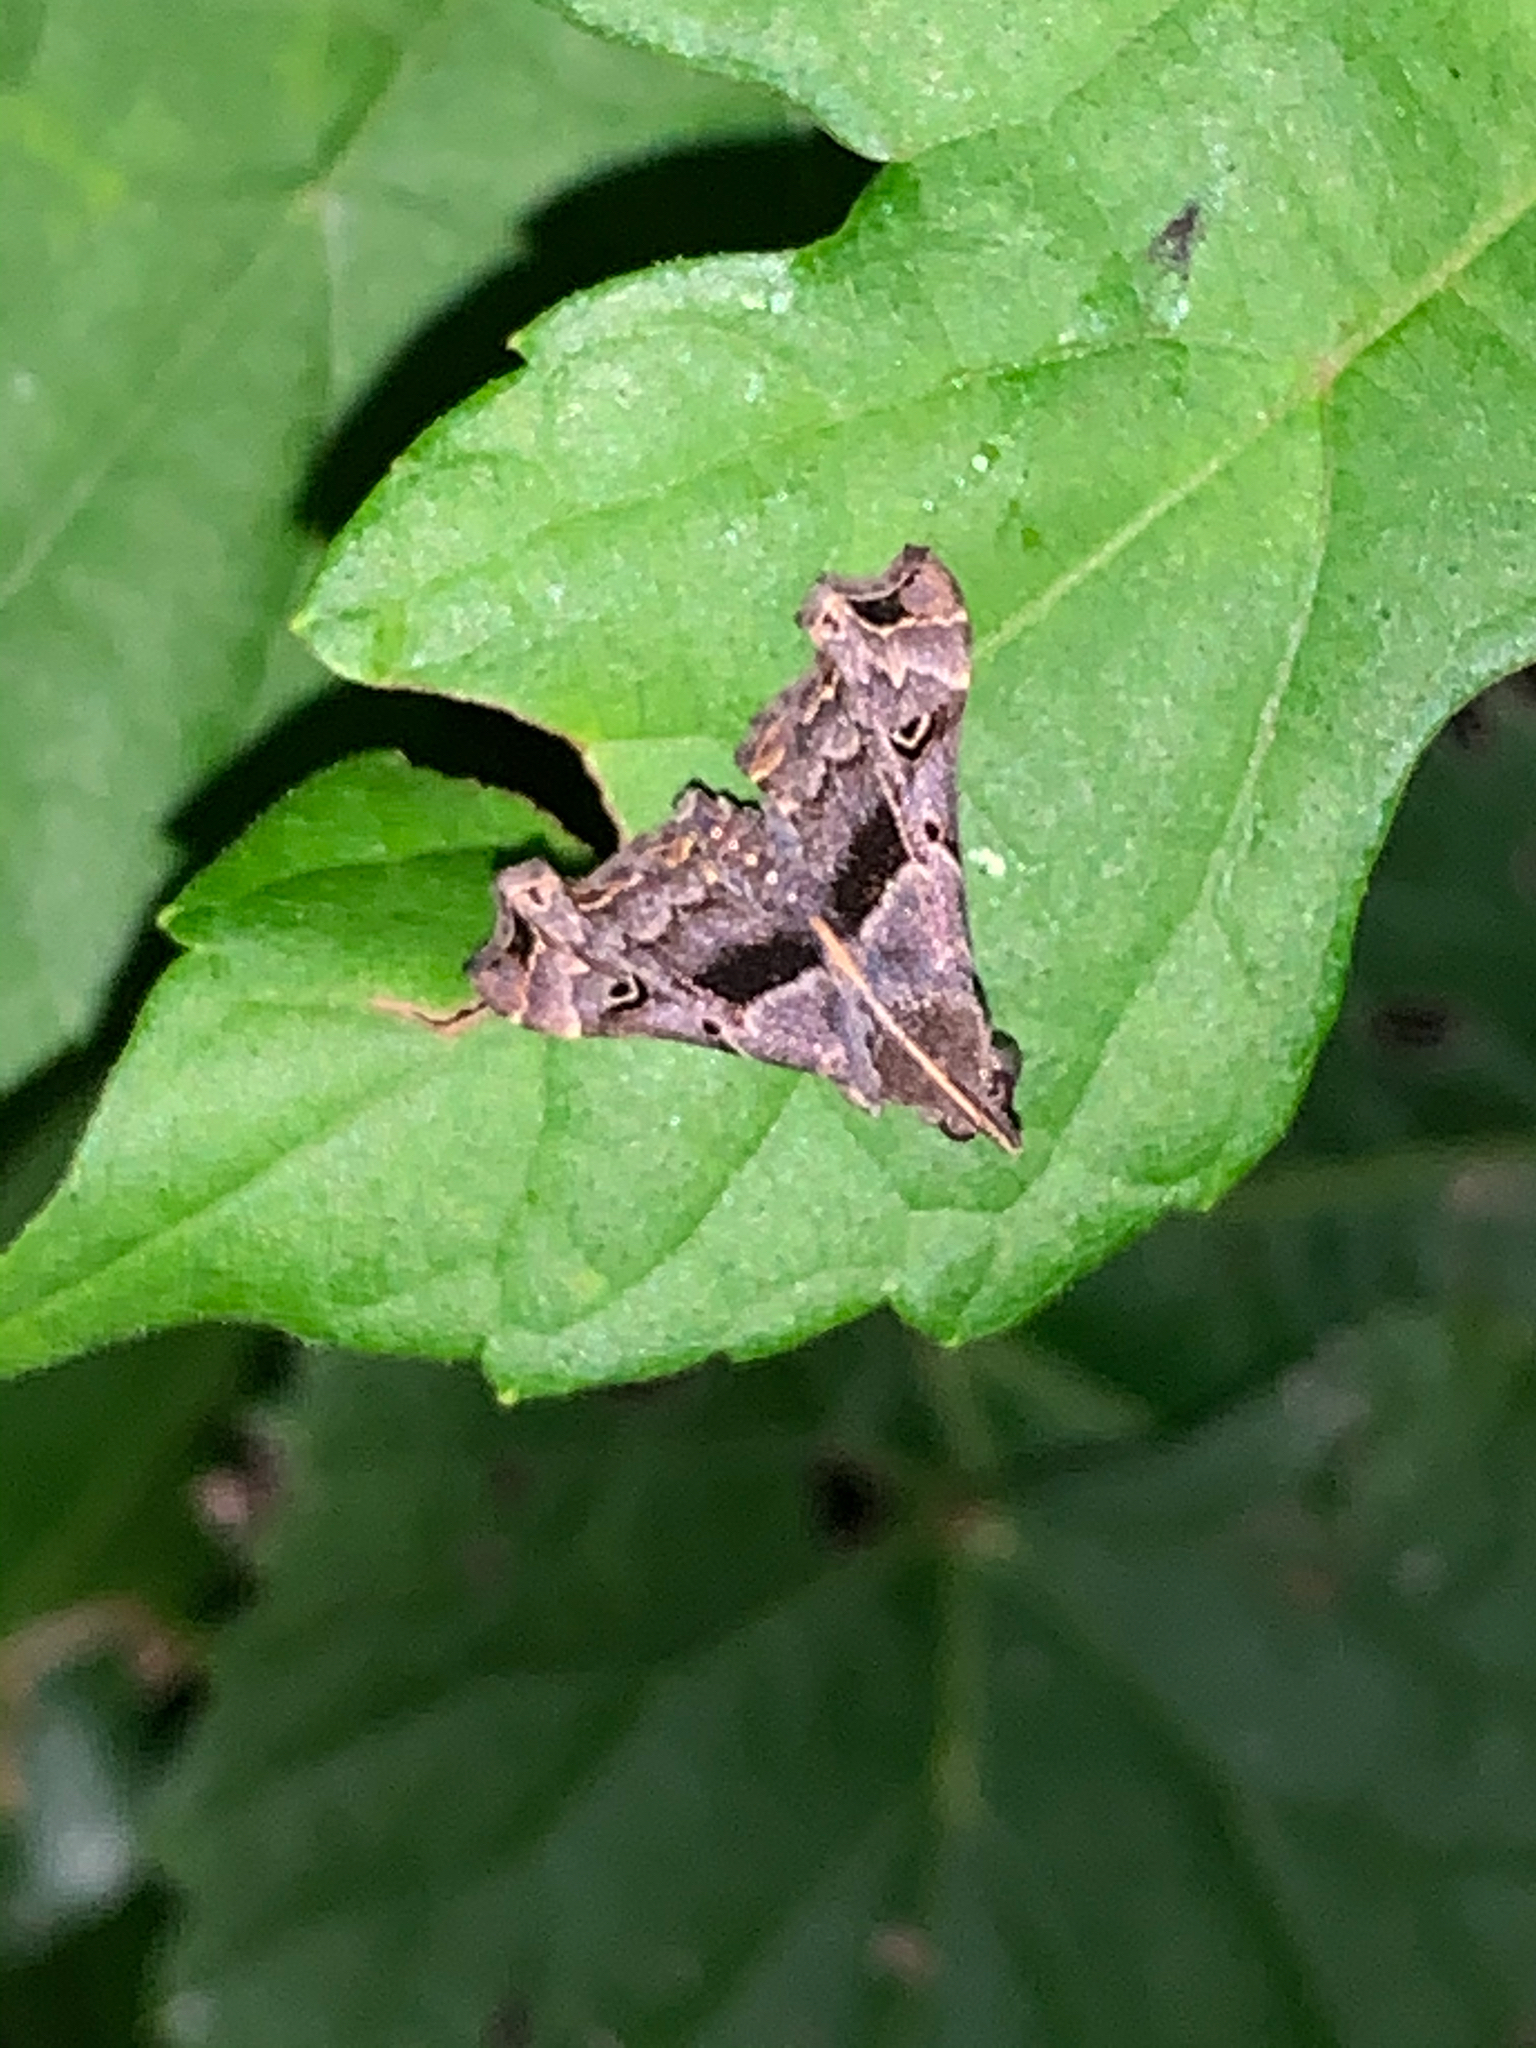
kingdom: Animalia
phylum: Arthropoda
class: Insecta
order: Lepidoptera
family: Erebidae
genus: Palthis
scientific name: Palthis asopialis
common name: Faint-spotted palthis moth
